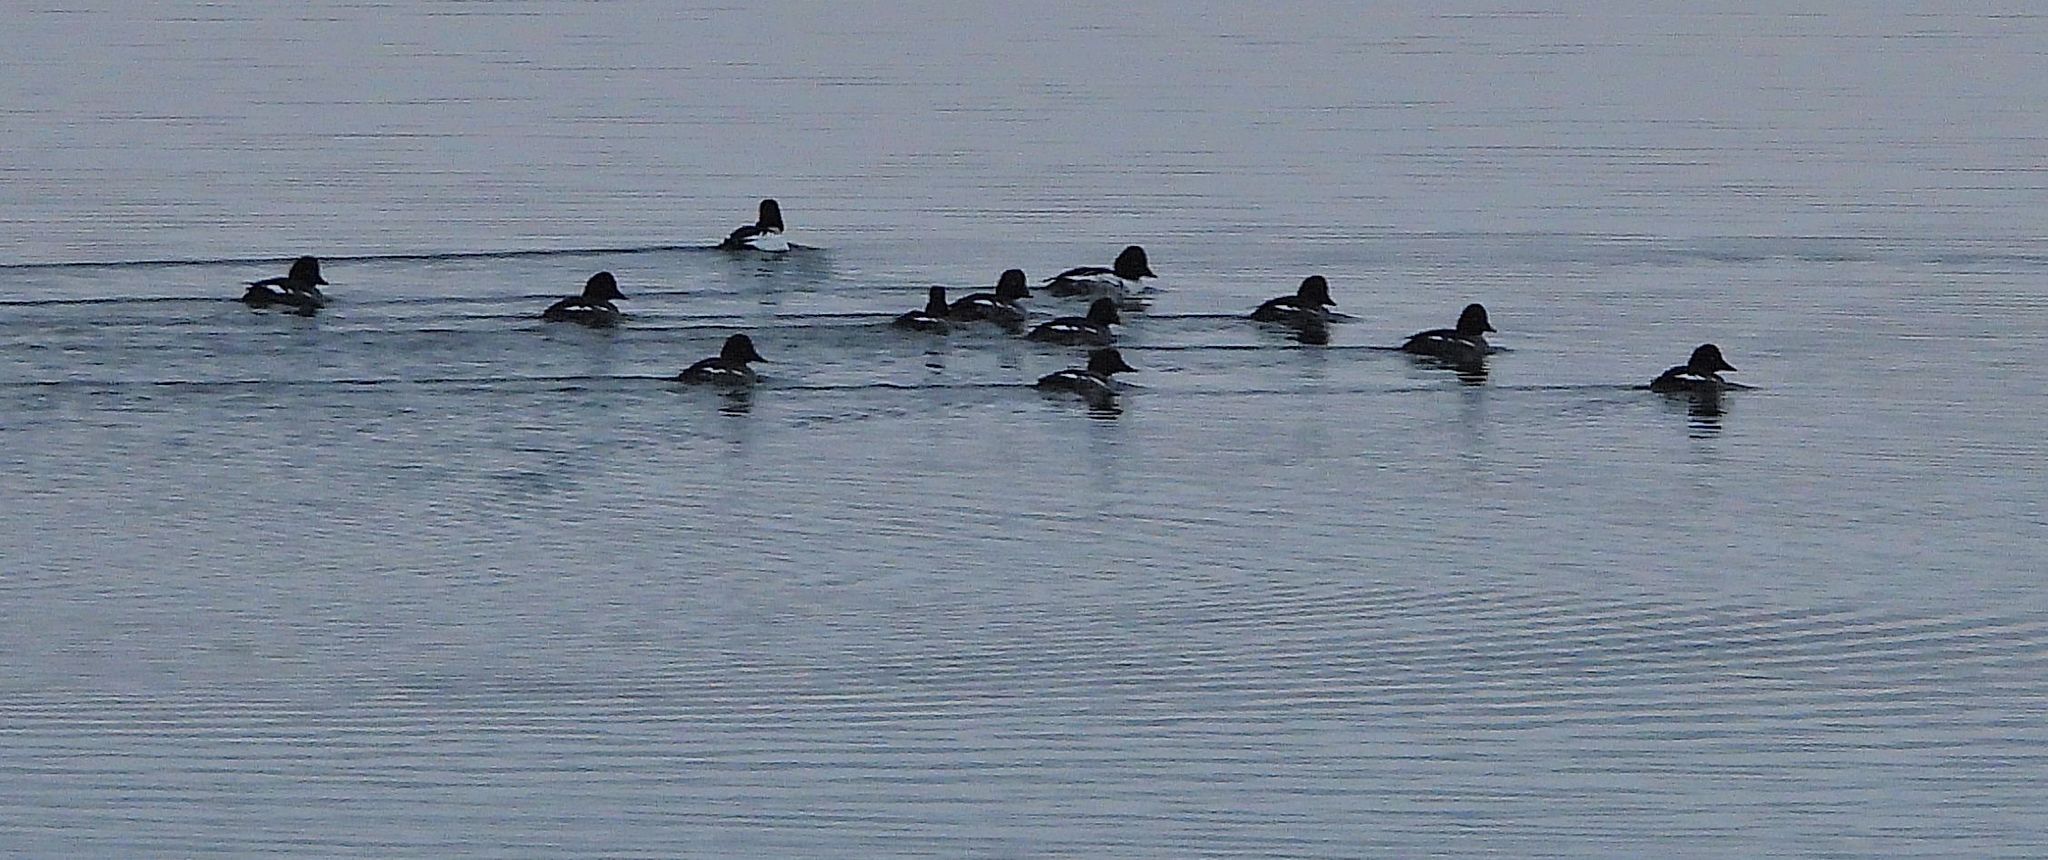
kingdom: Animalia
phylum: Chordata
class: Aves
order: Anseriformes
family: Anatidae
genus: Bucephala
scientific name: Bucephala clangula
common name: Common goldeneye
